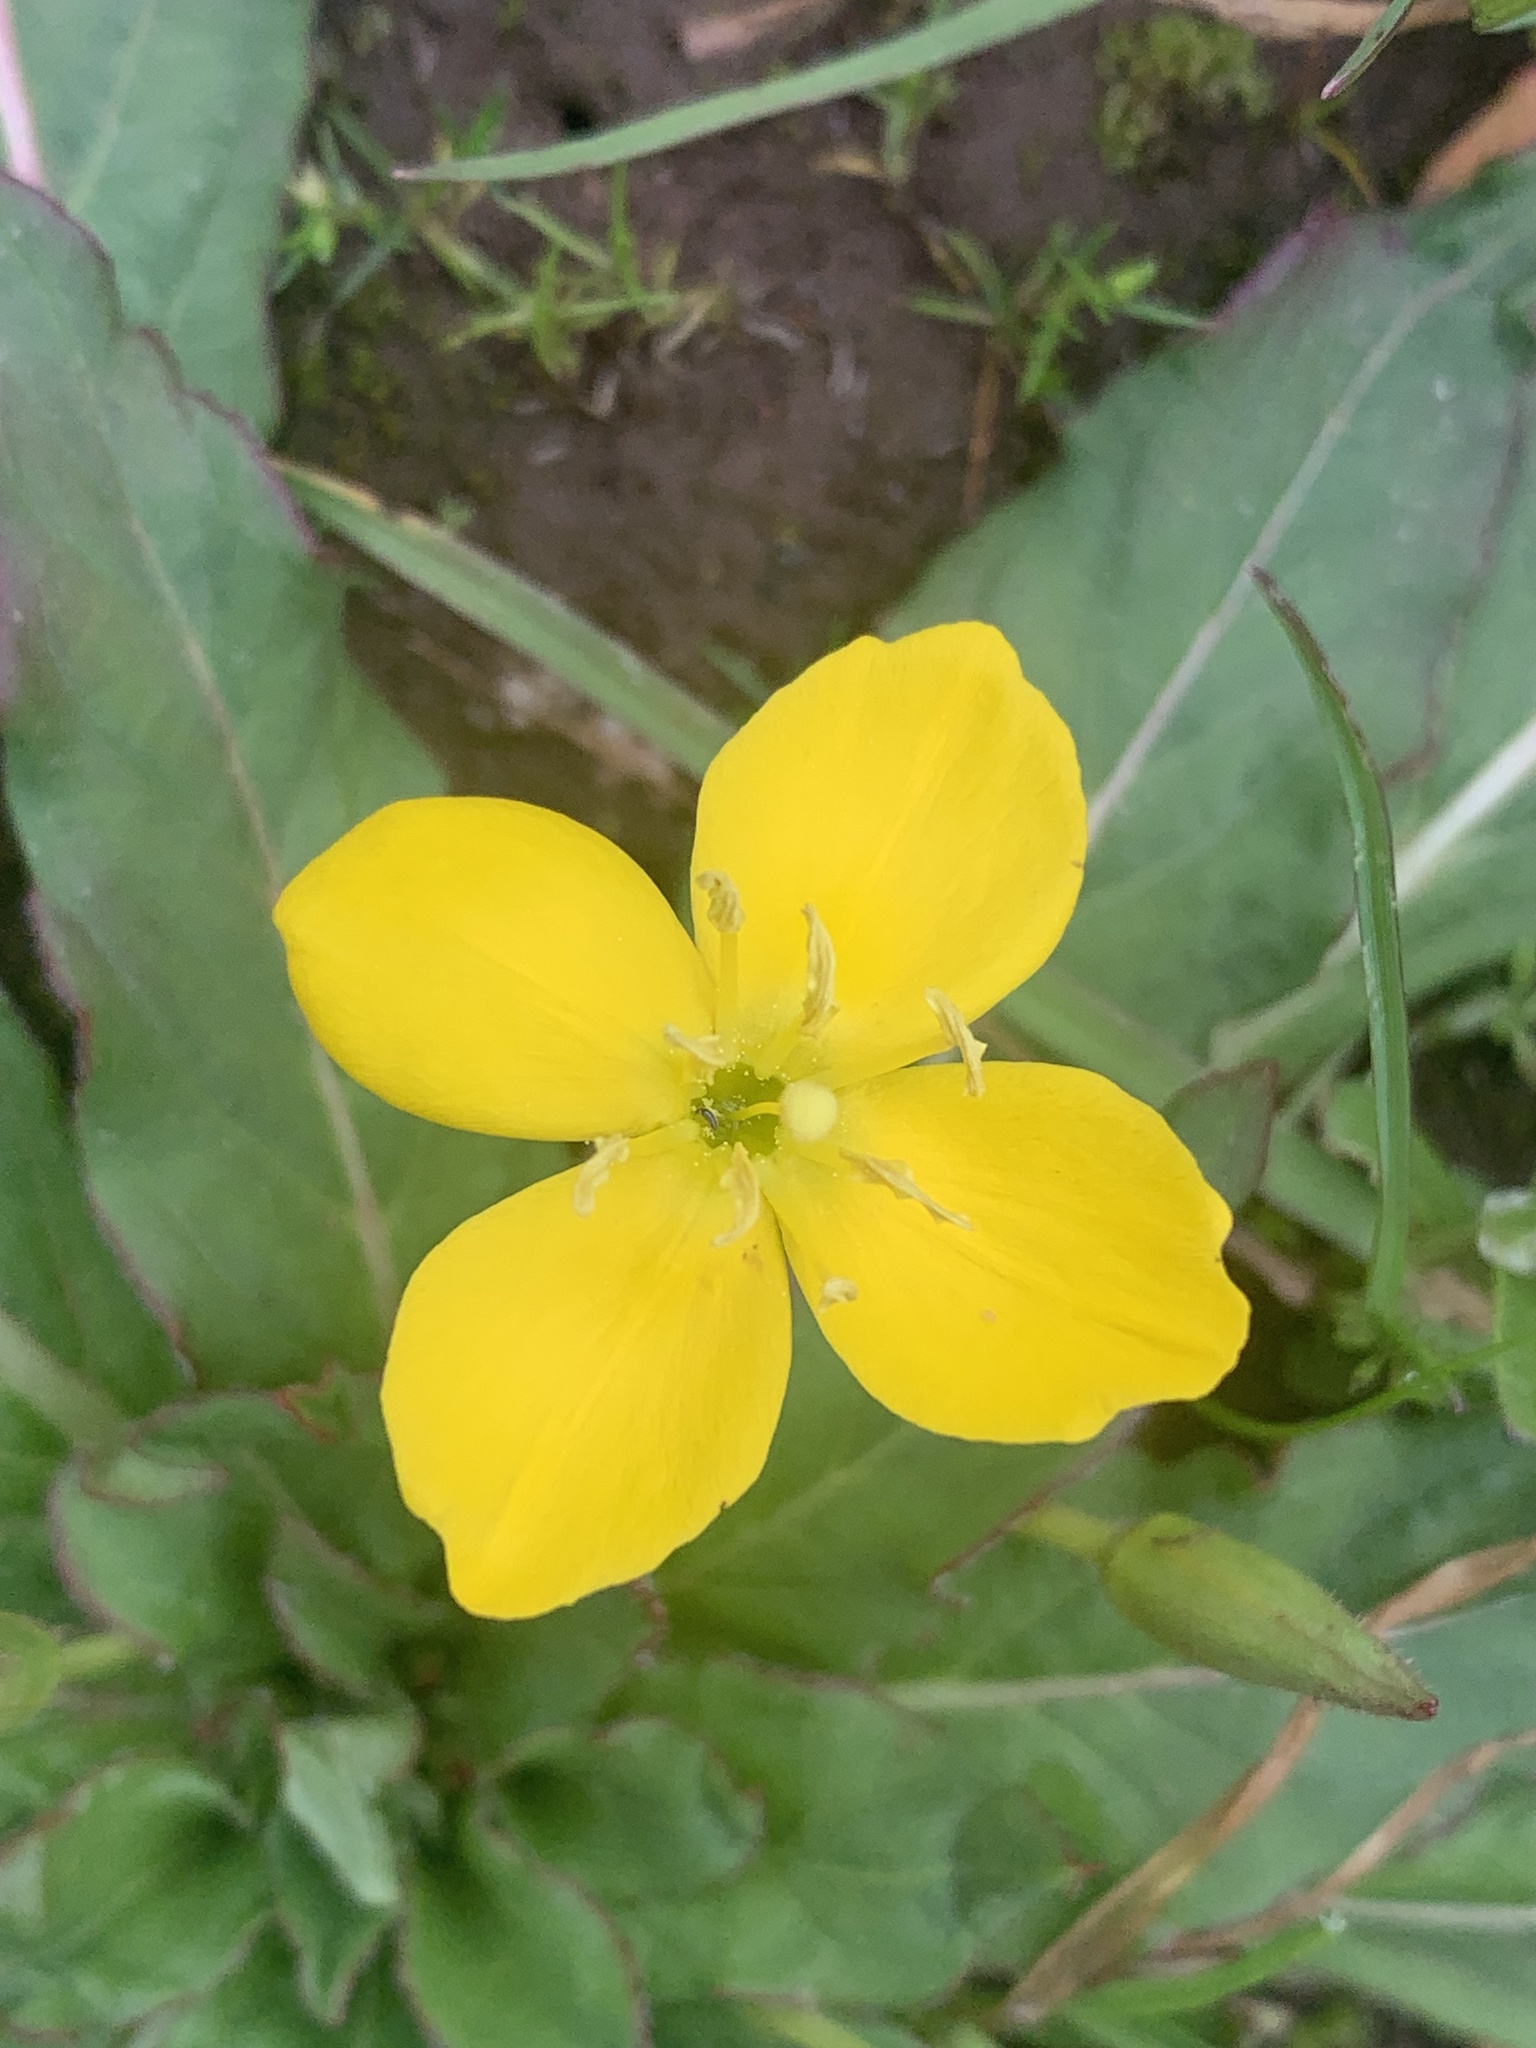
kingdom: Plantae
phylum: Tracheophyta
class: Magnoliopsida
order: Myrtales
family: Onagraceae
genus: Taraxia
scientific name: Taraxia ovata
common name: Goldeneggs
